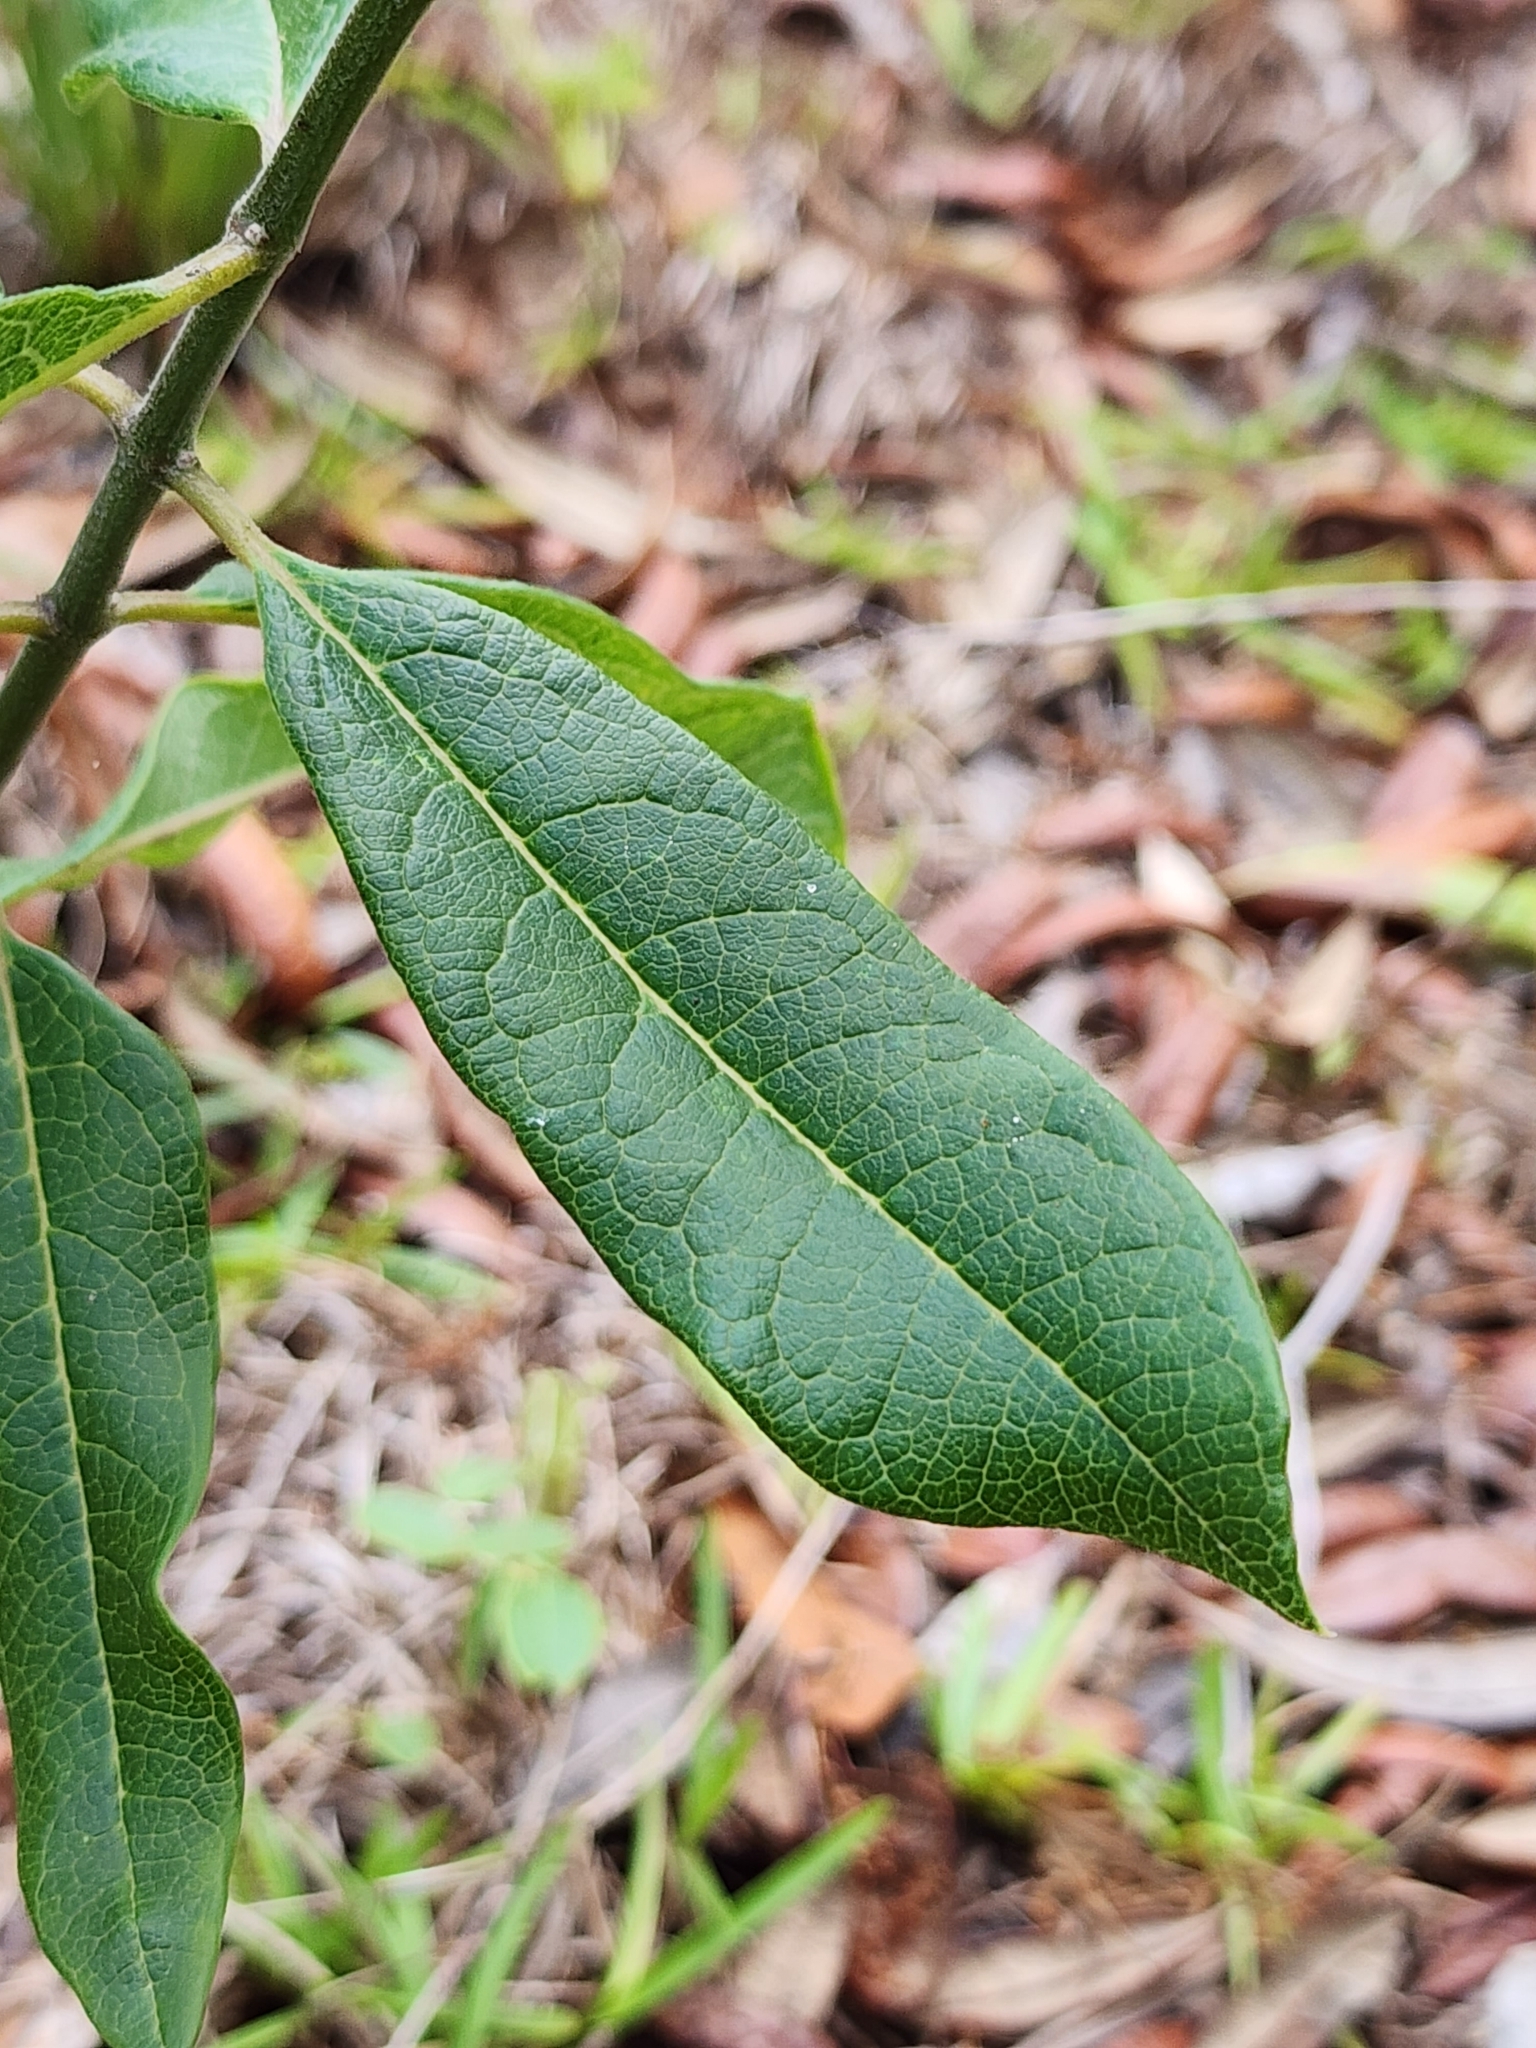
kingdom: Plantae
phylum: Tracheophyta
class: Magnoliopsida
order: Gentianales
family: Apocynaceae
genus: Asclepias
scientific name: Asclepias tomentosa
